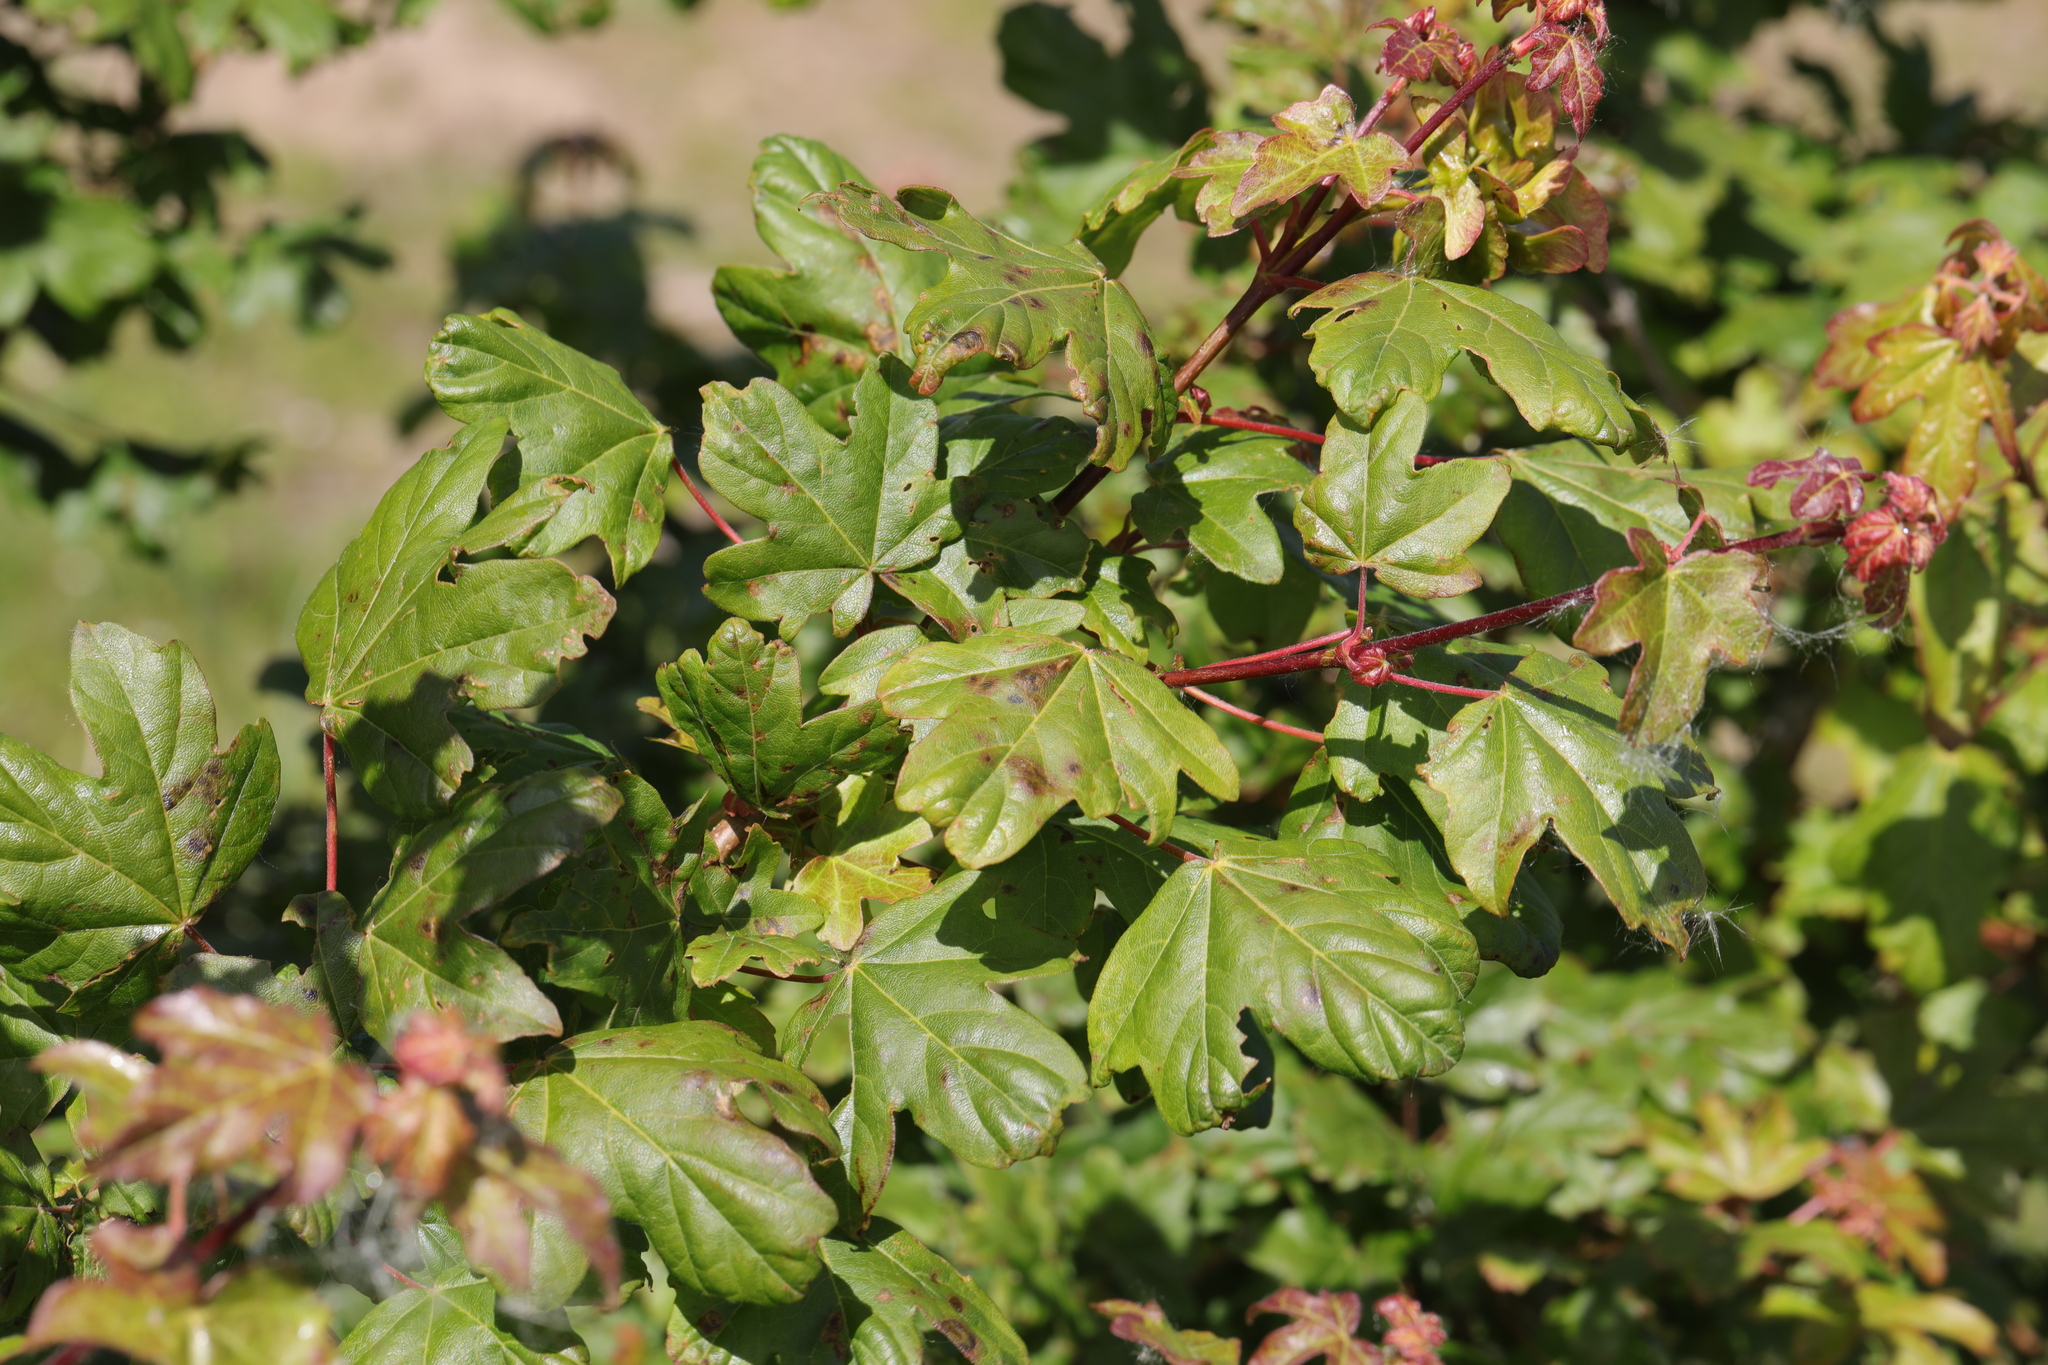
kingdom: Plantae
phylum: Tracheophyta
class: Magnoliopsida
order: Sapindales
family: Sapindaceae
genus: Acer
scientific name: Acer campestre
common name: Field maple
